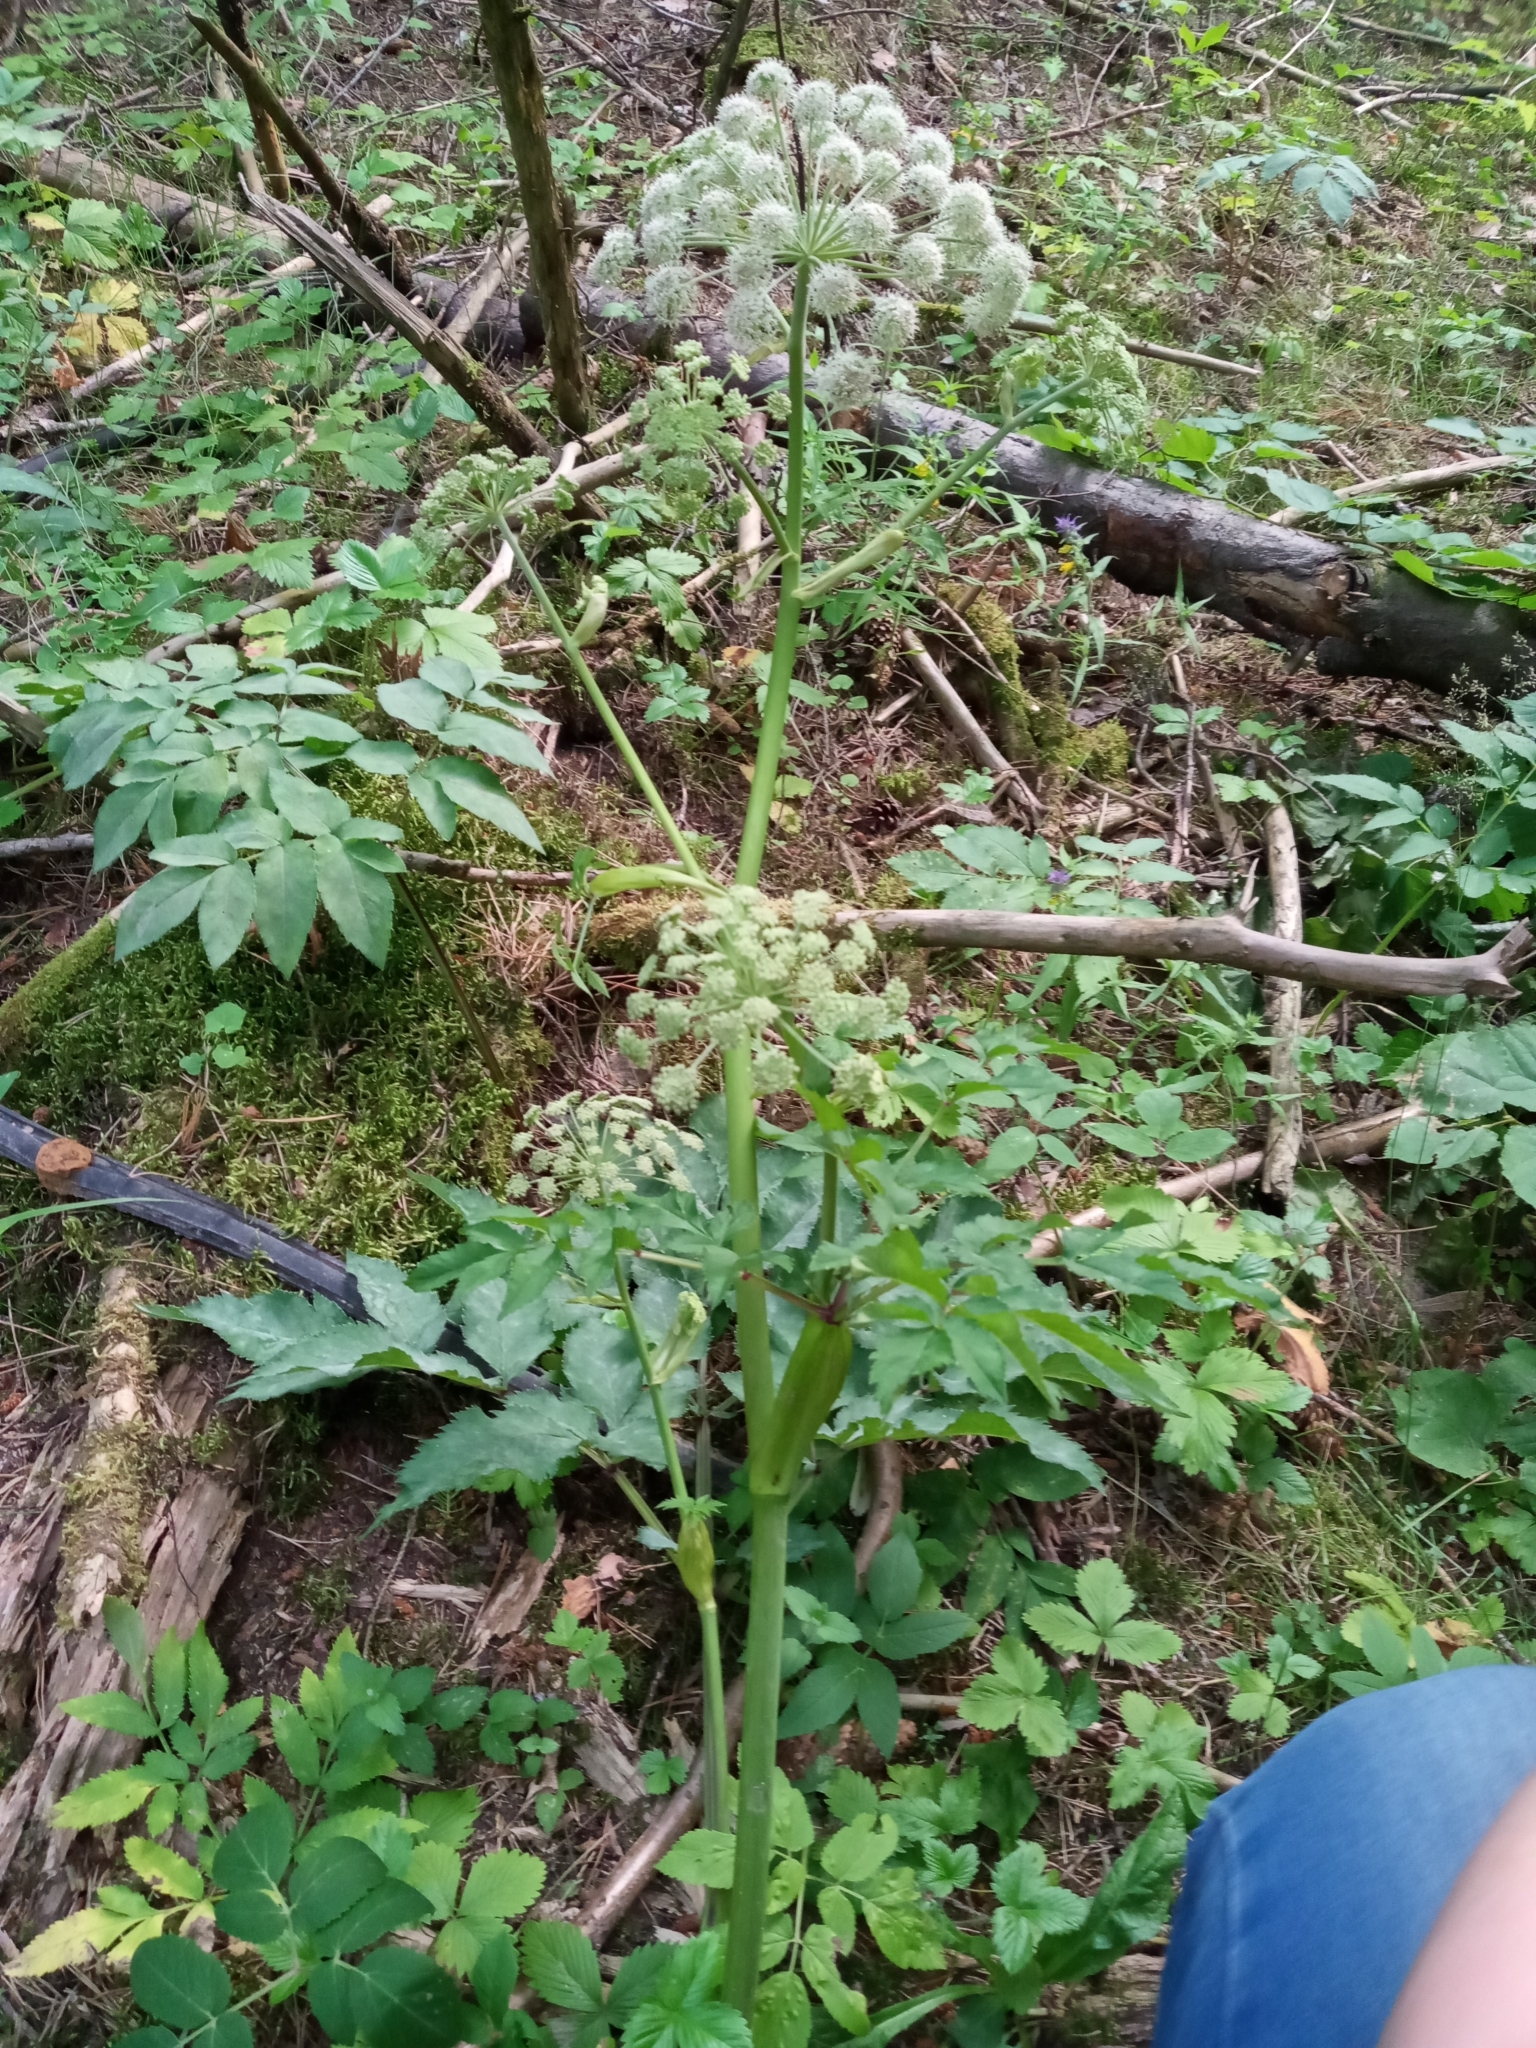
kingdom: Plantae
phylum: Tracheophyta
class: Magnoliopsida
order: Apiales
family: Apiaceae
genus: Angelica
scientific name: Angelica sylvestris
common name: Wild angelica
